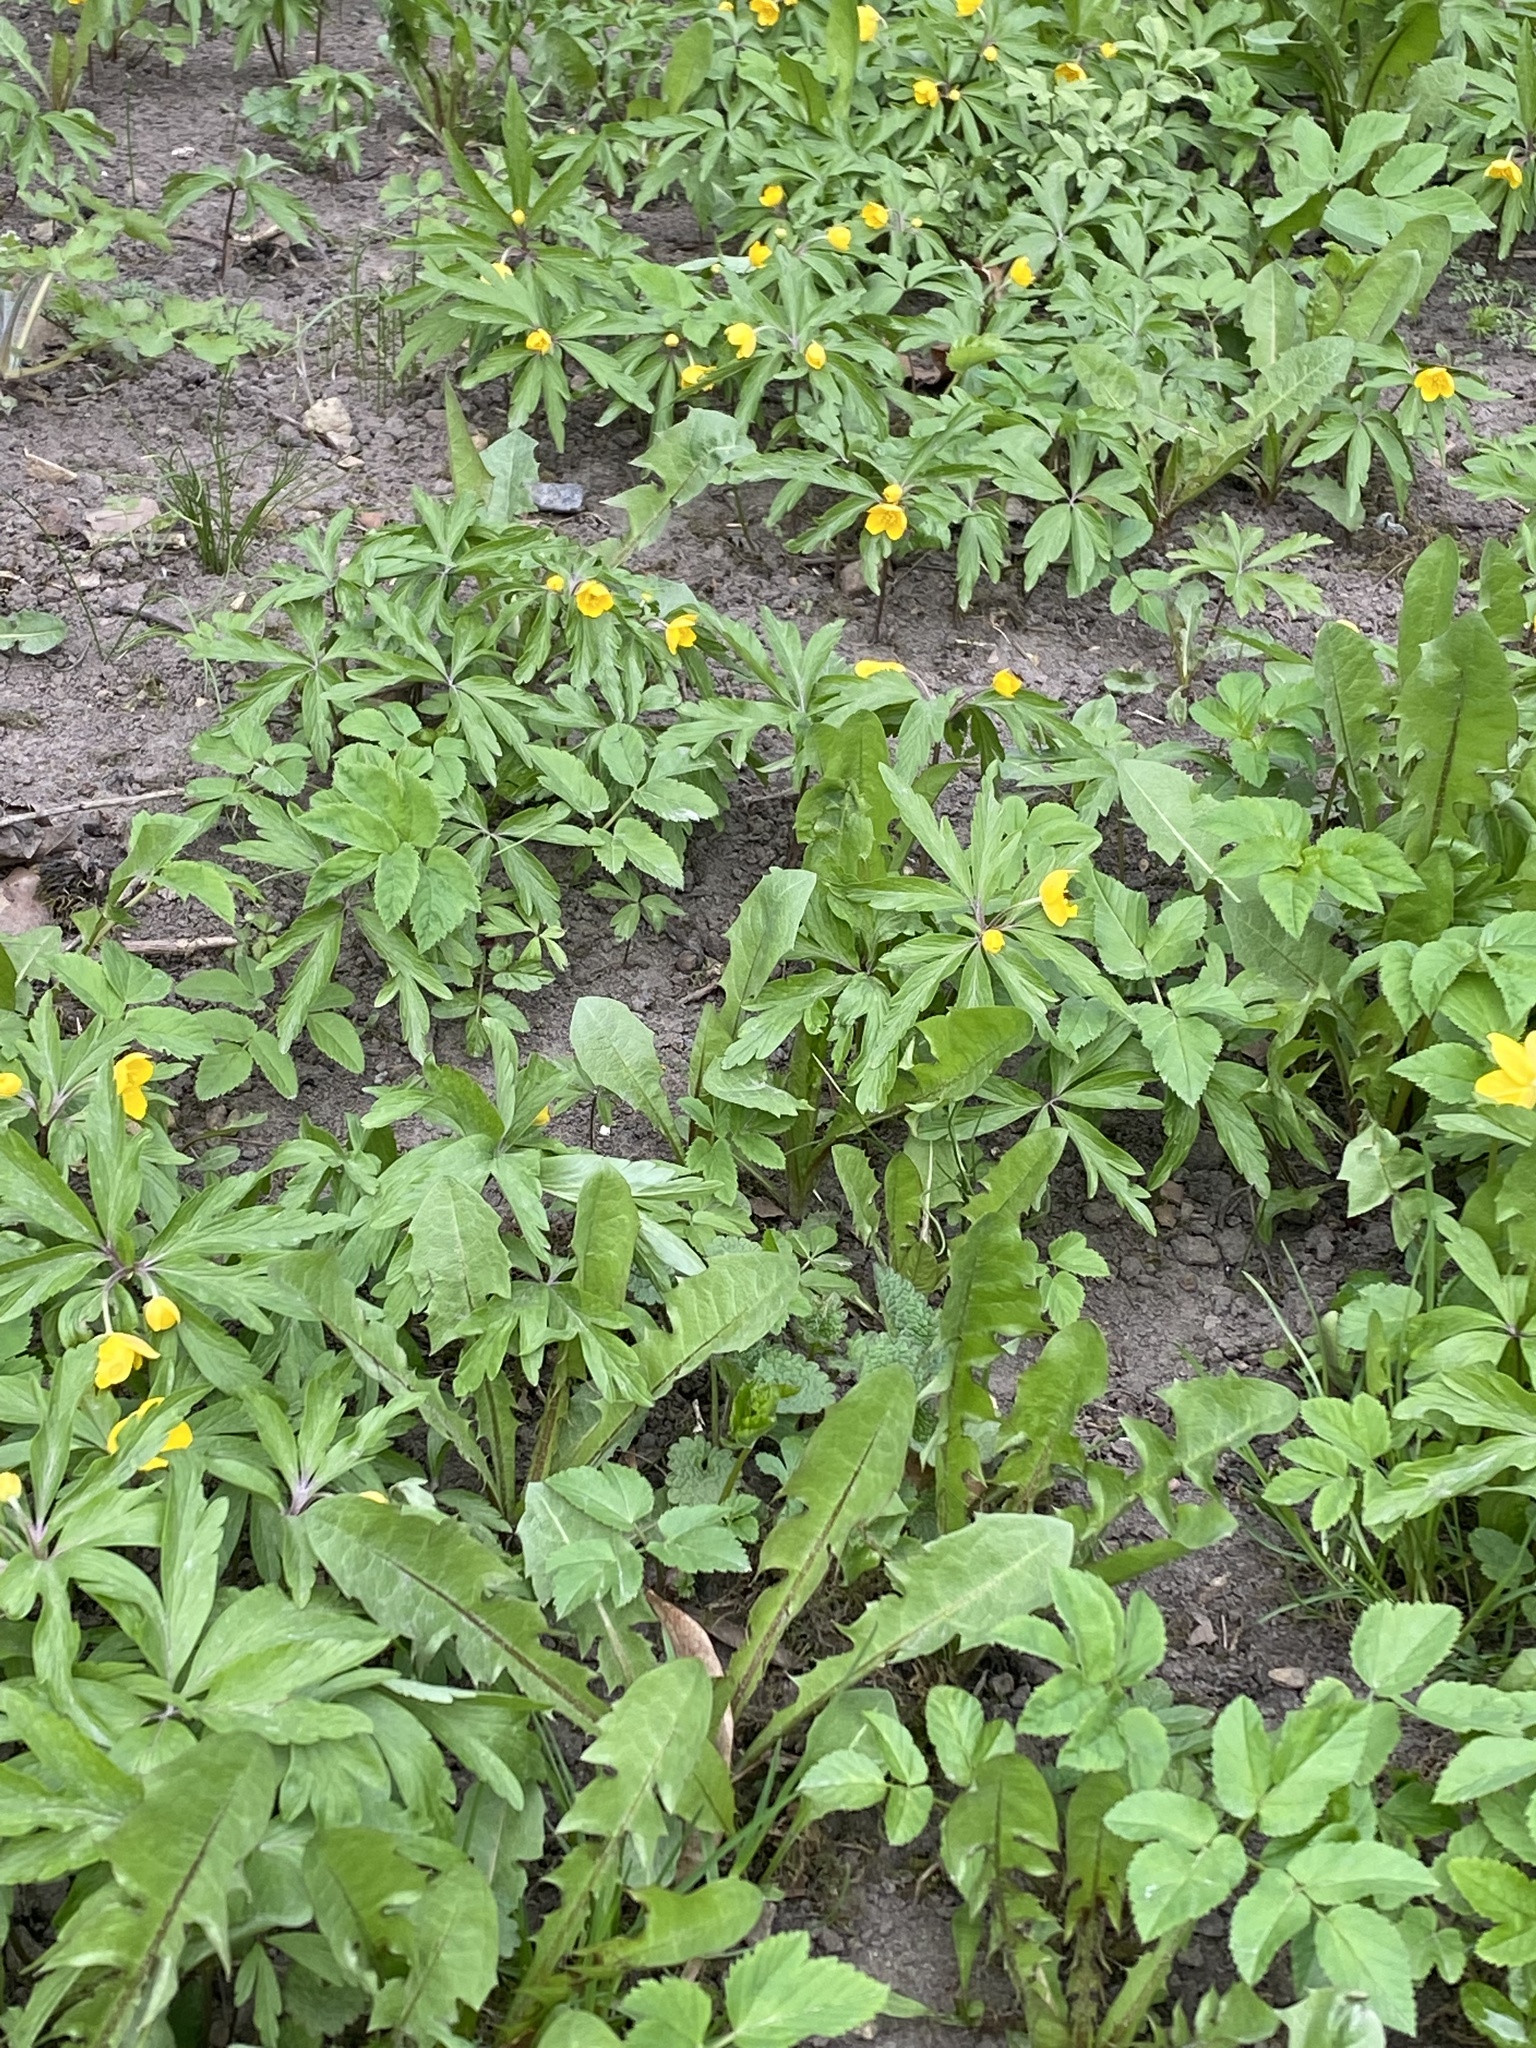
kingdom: Plantae
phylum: Tracheophyta
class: Magnoliopsida
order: Ranunculales
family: Ranunculaceae
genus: Anemone
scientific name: Anemone ranunculoides
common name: Yellow anemone
